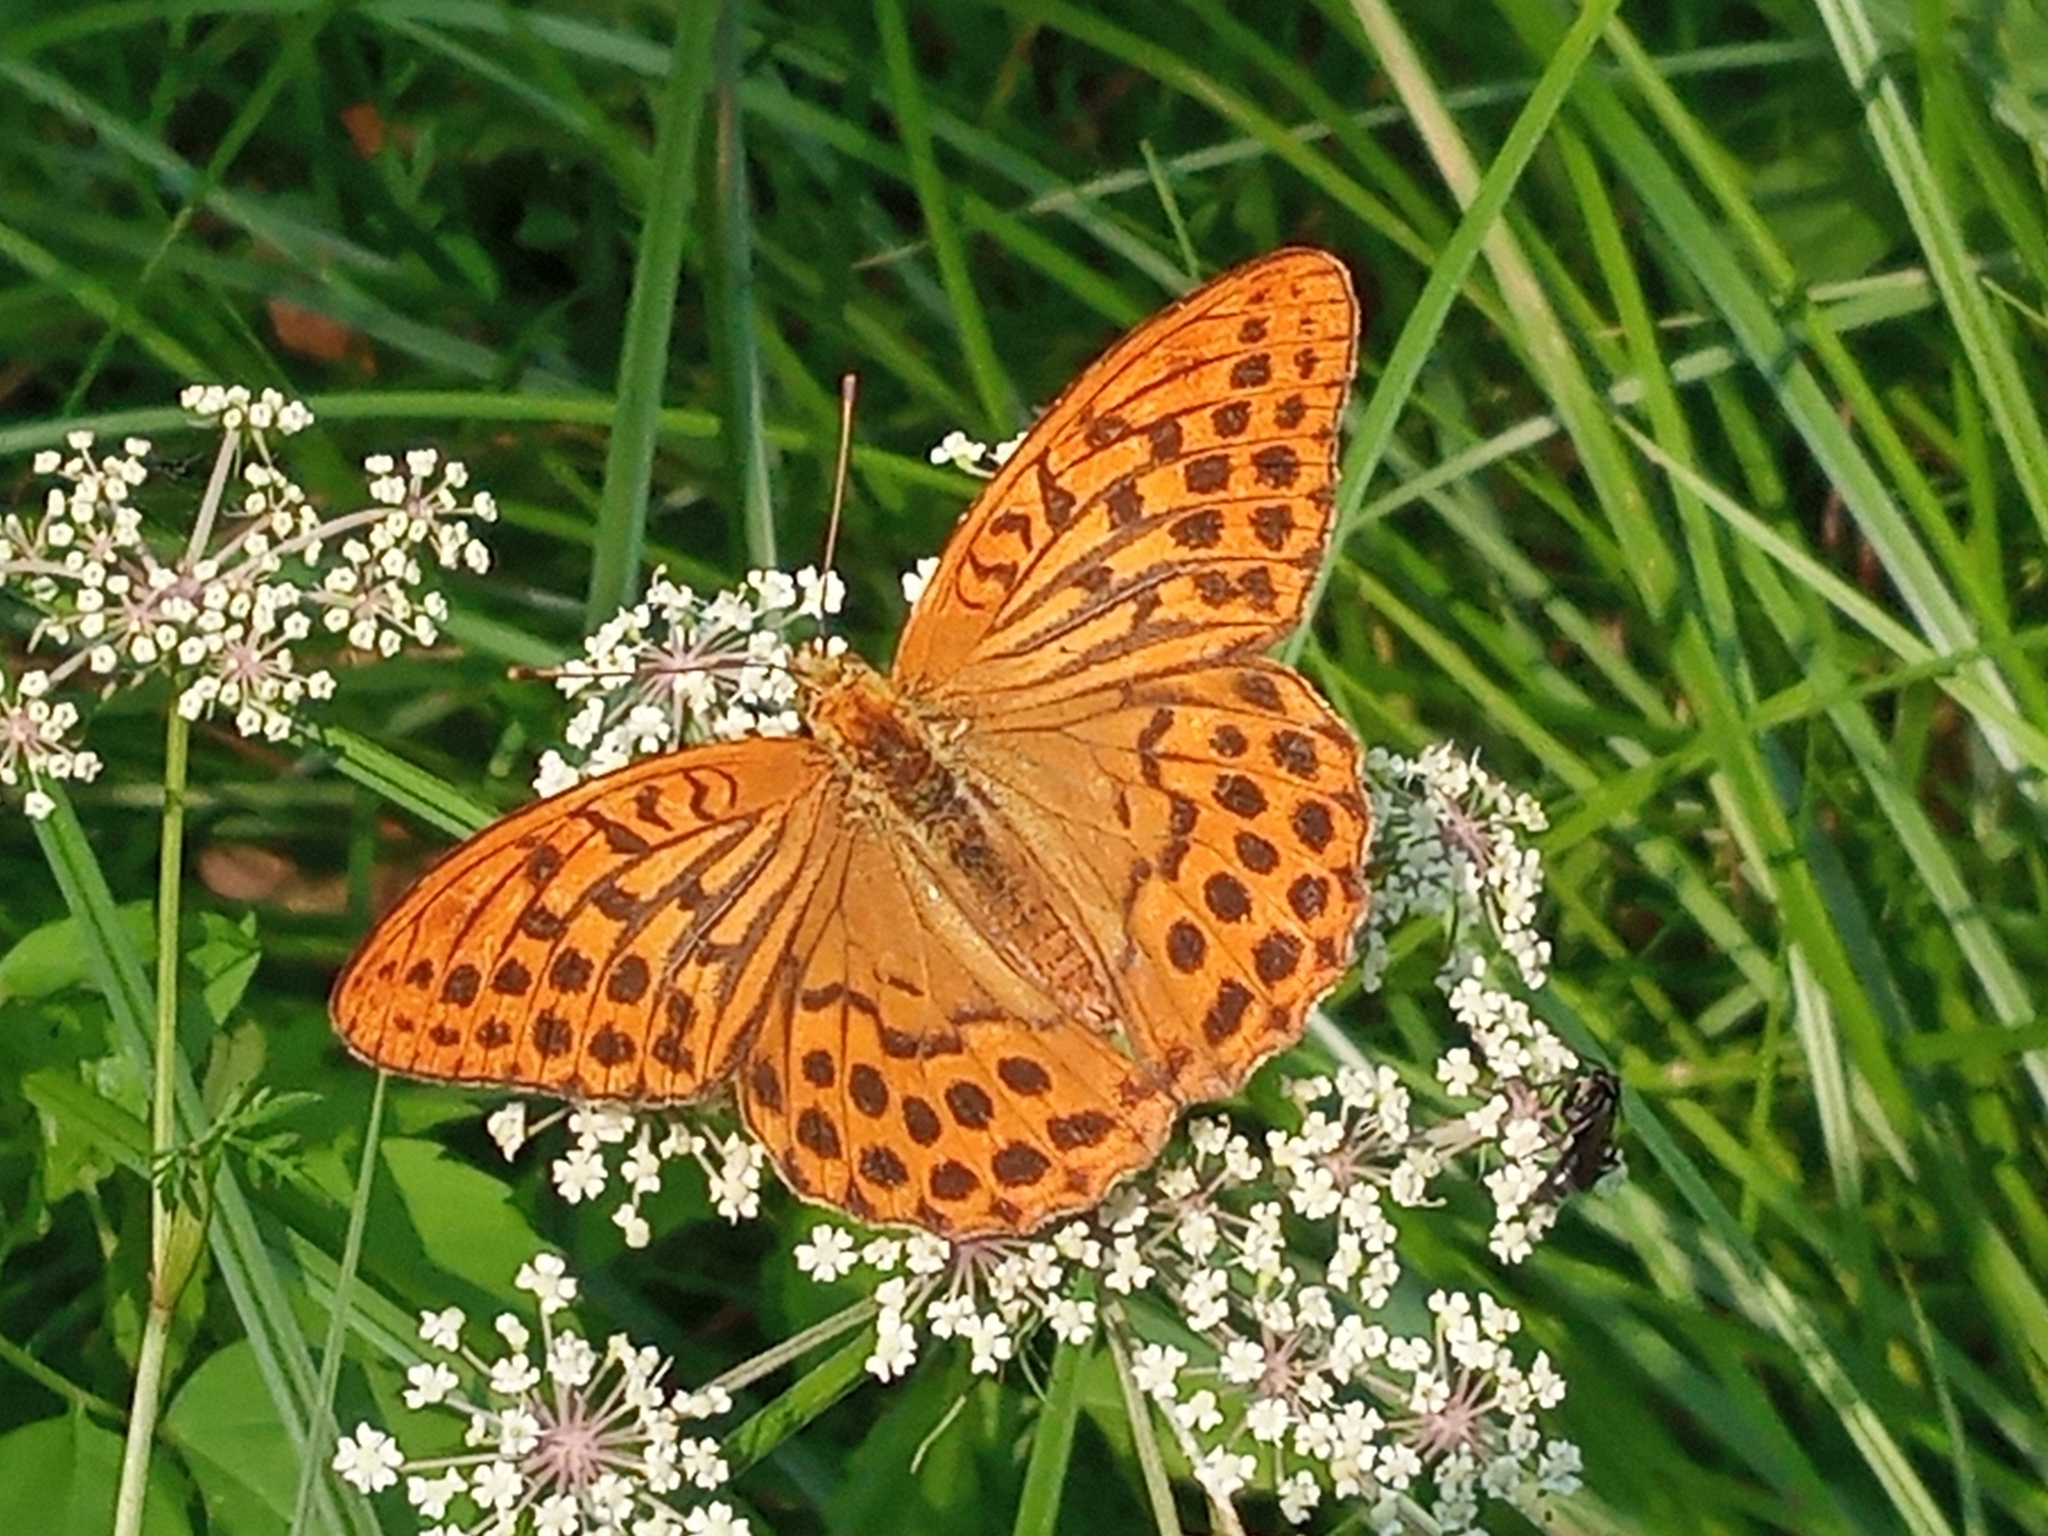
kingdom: Animalia
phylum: Arthropoda
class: Insecta
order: Lepidoptera
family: Nymphalidae
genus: Argynnis
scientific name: Argynnis paphia
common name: Silver-washed fritillary
